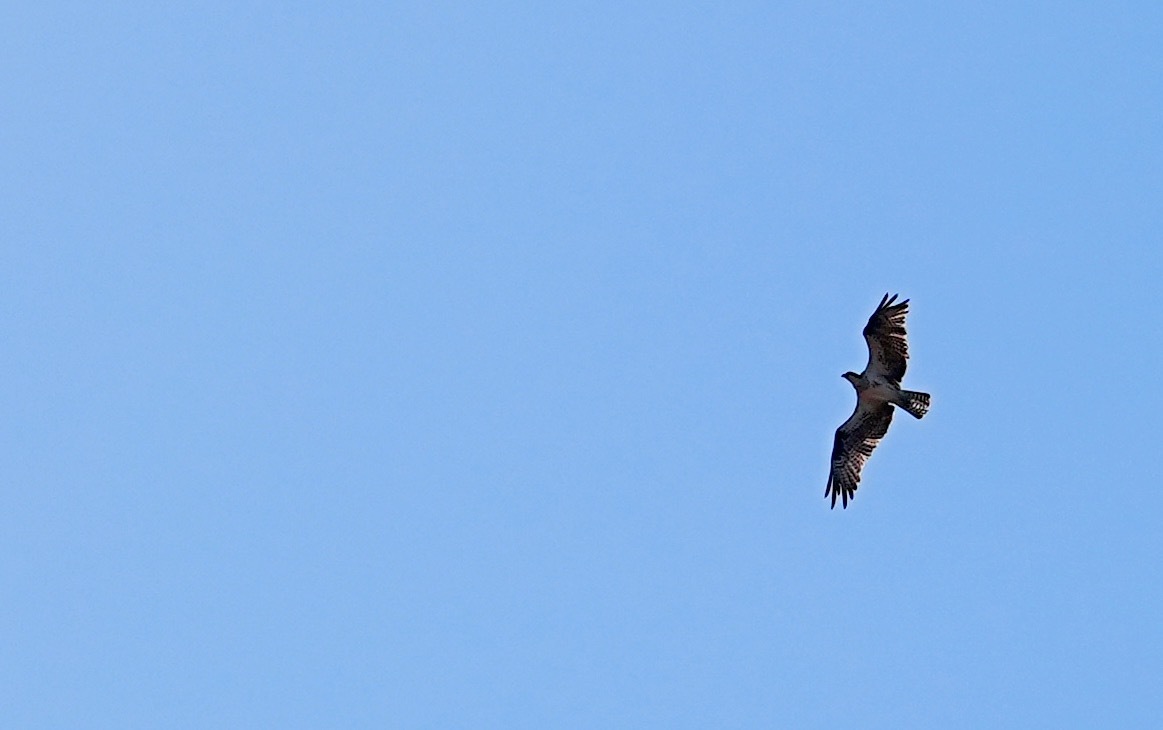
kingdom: Animalia
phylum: Chordata
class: Aves
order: Accipitriformes
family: Pandionidae
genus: Pandion
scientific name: Pandion haliaetus
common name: Osprey
